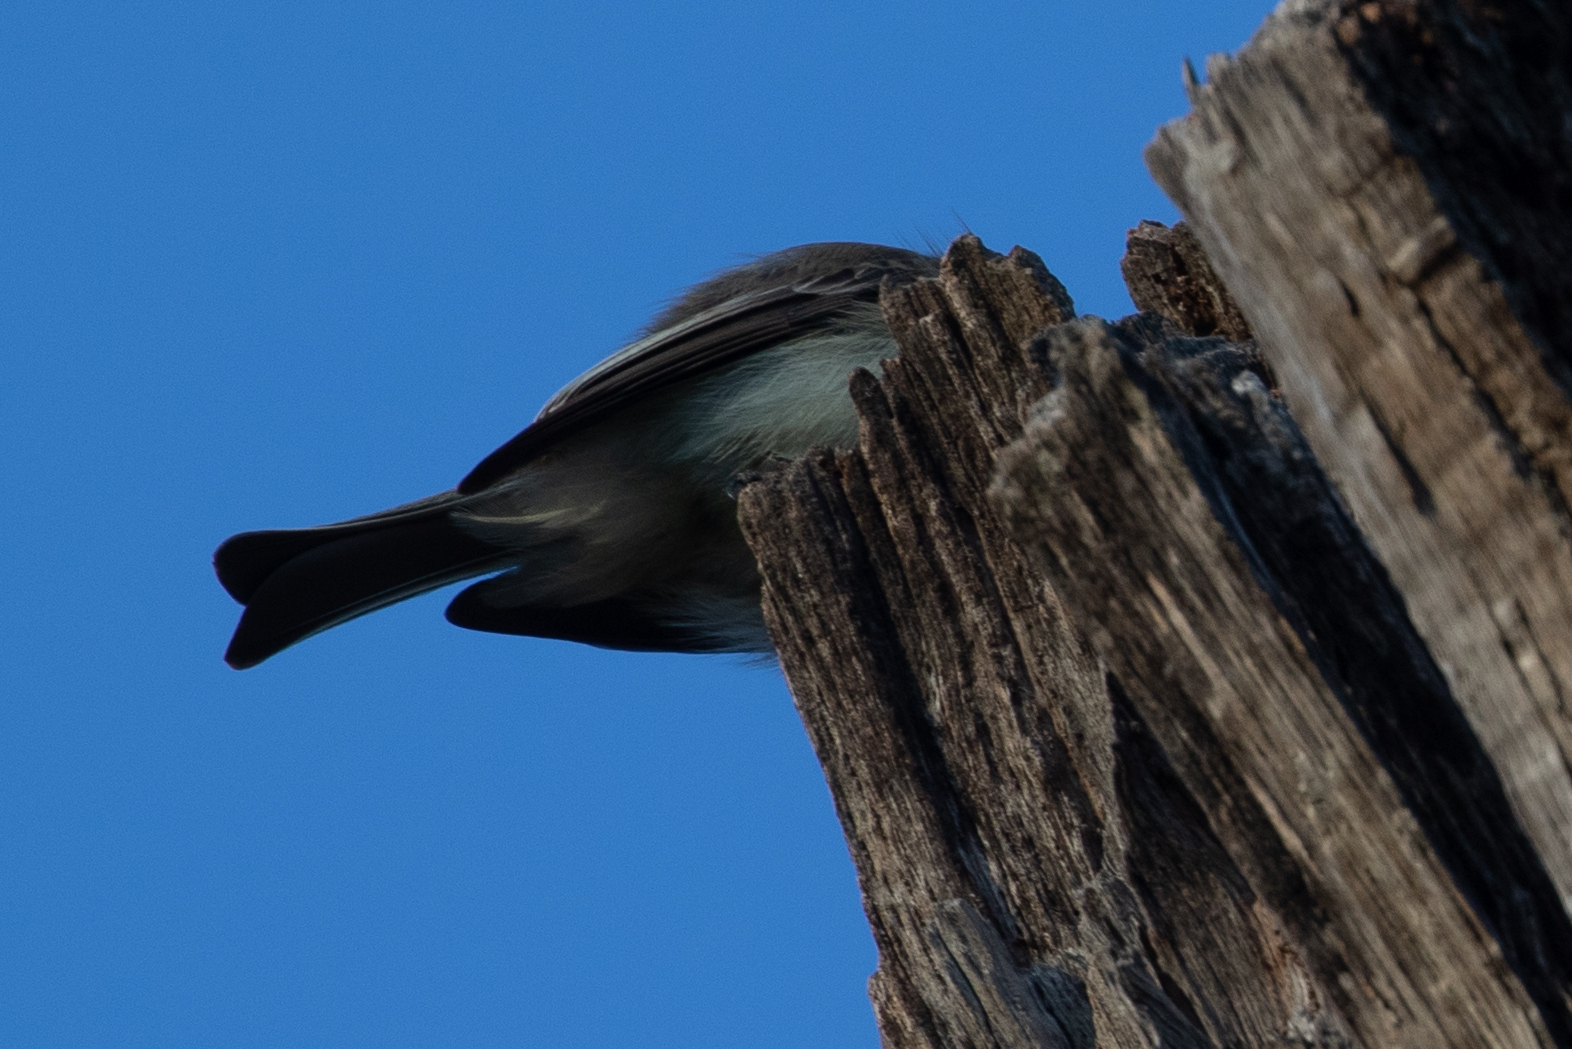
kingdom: Animalia
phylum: Chordata
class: Aves
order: Passeriformes
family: Tyrannidae
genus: Sayornis
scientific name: Sayornis phoebe
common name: Eastern phoebe
